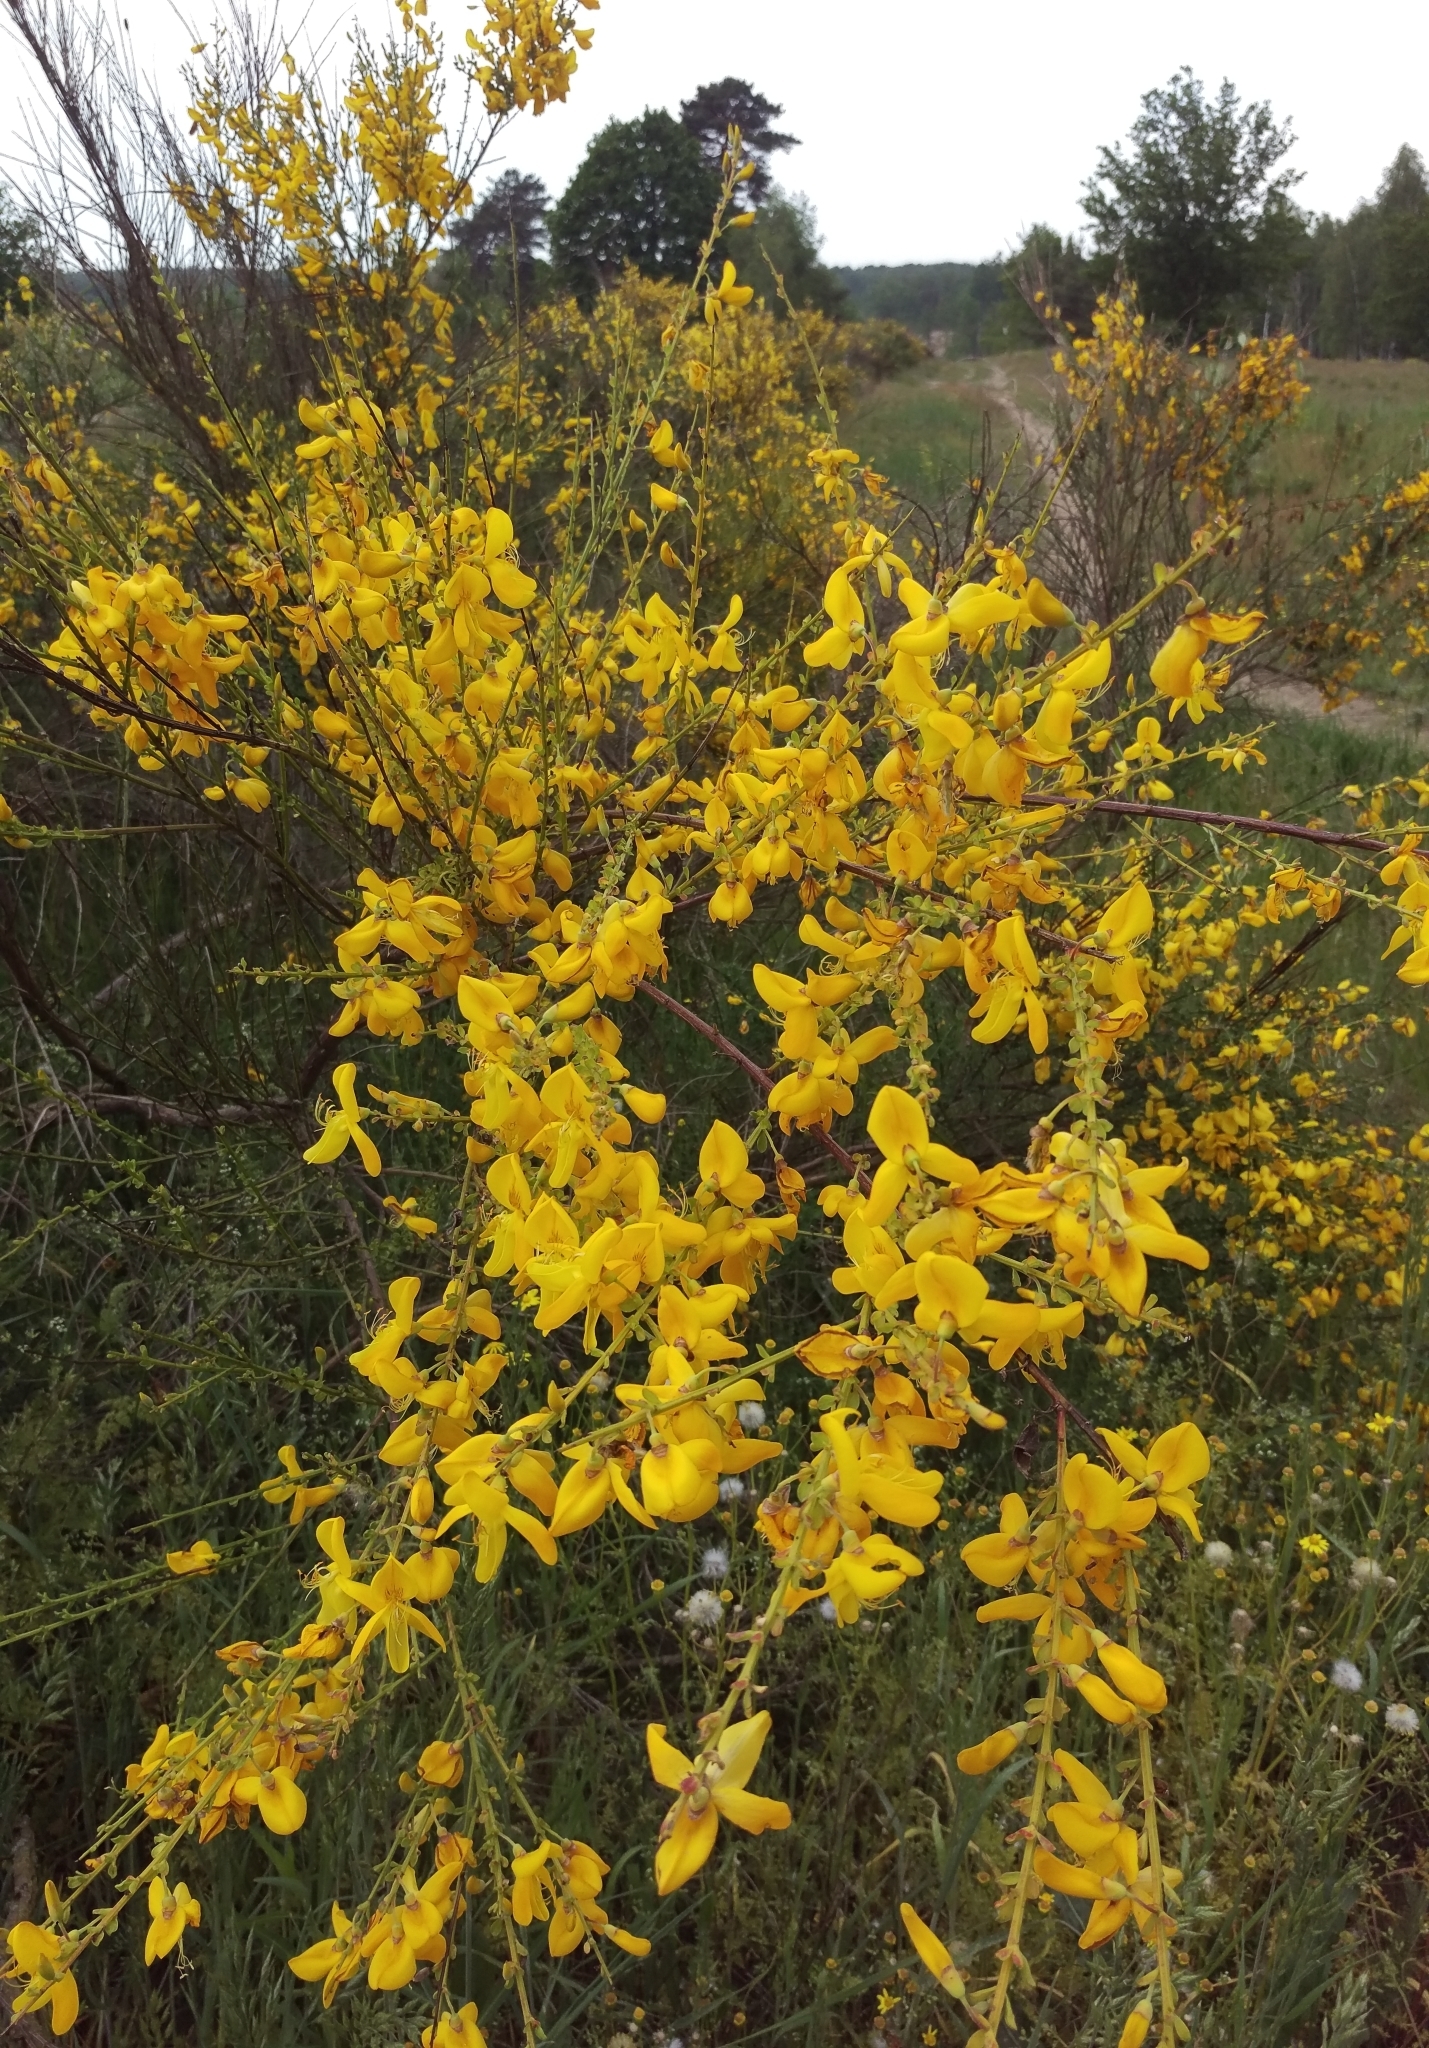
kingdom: Plantae
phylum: Tracheophyta
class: Magnoliopsida
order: Fabales
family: Fabaceae
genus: Cytisus
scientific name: Cytisus scoparius
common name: Scotch broom
